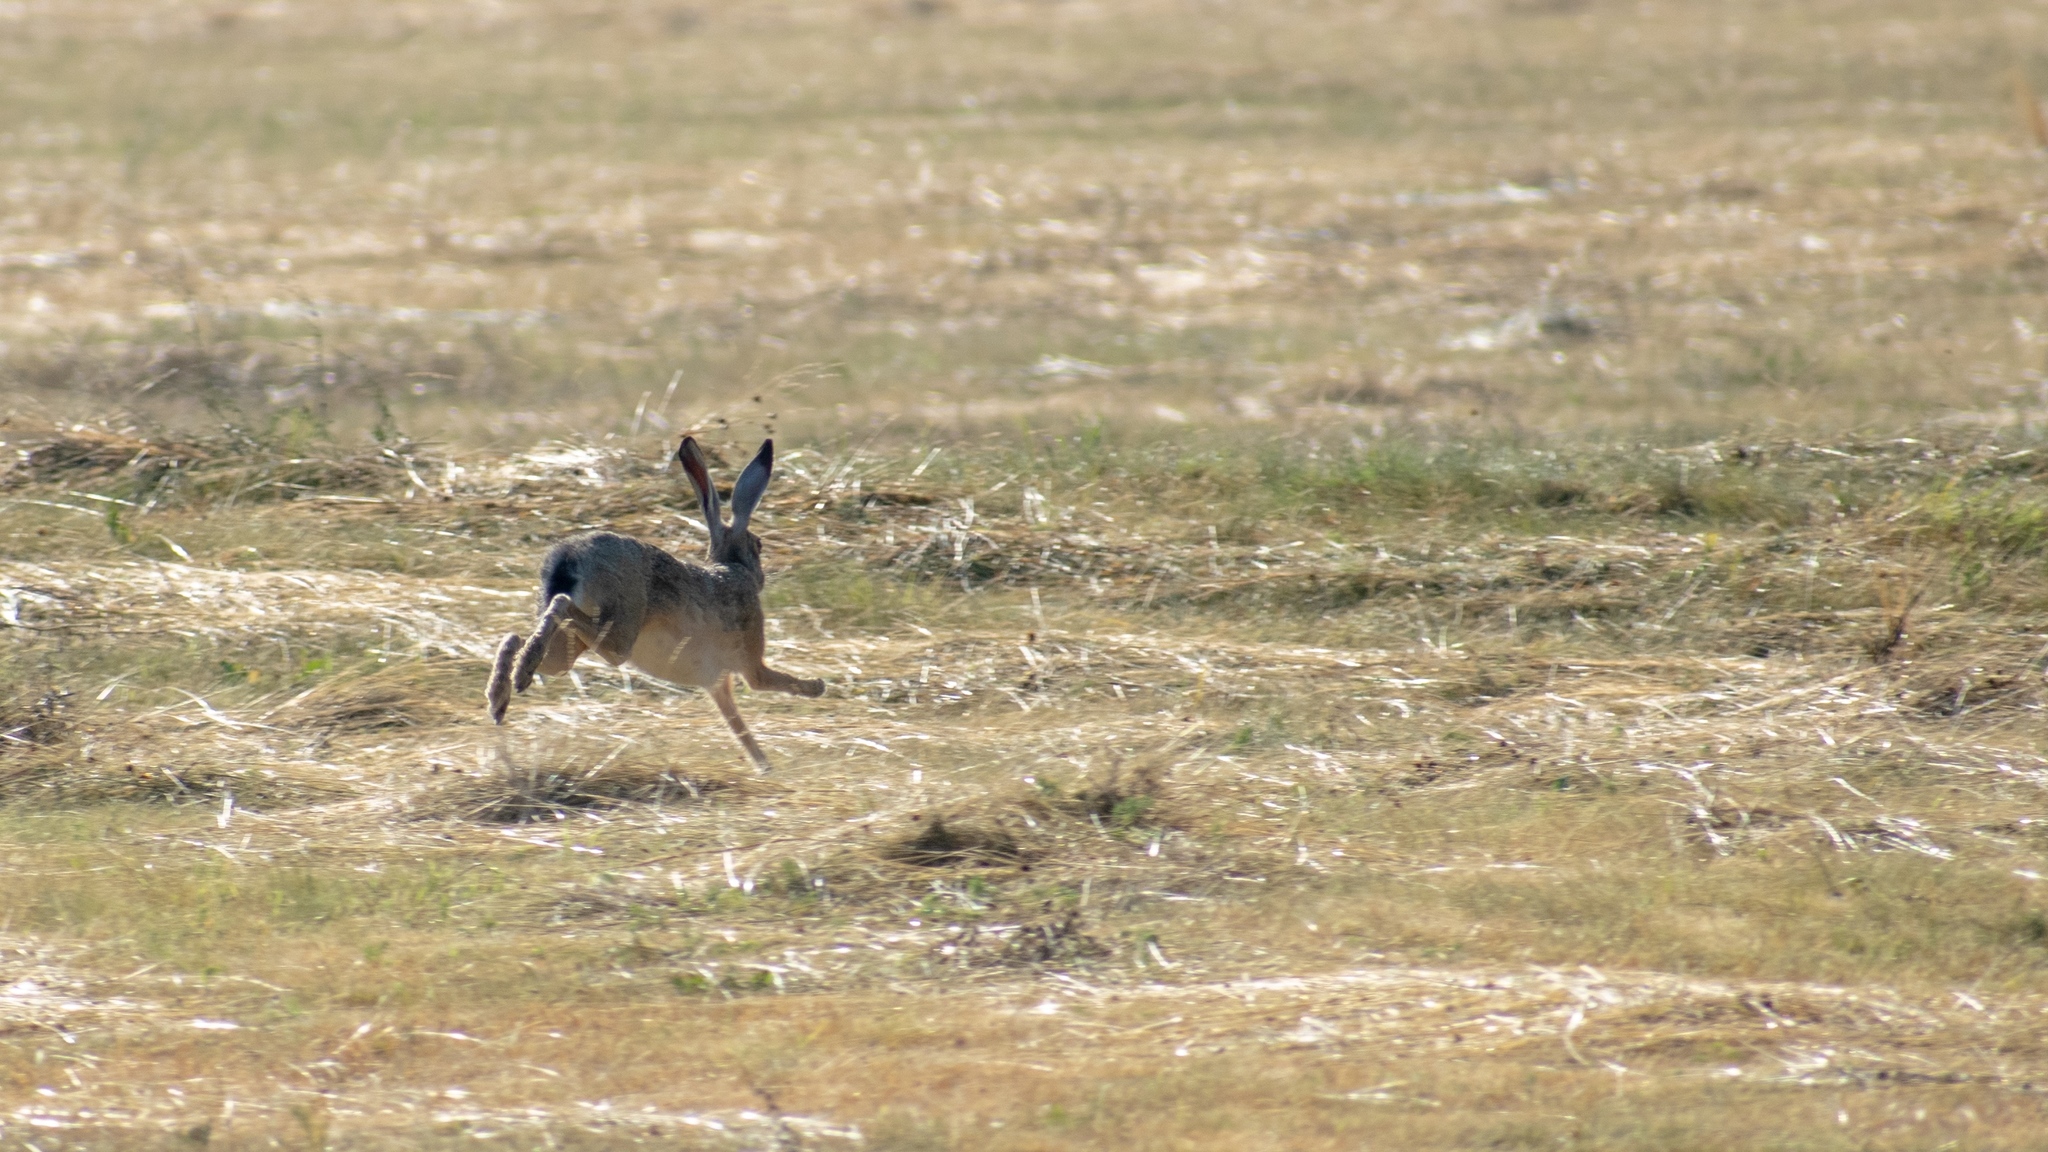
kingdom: Animalia
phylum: Chordata
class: Mammalia
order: Lagomorpha
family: Leporidae
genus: Lepus
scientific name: Lepus europaeus
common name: European hare
